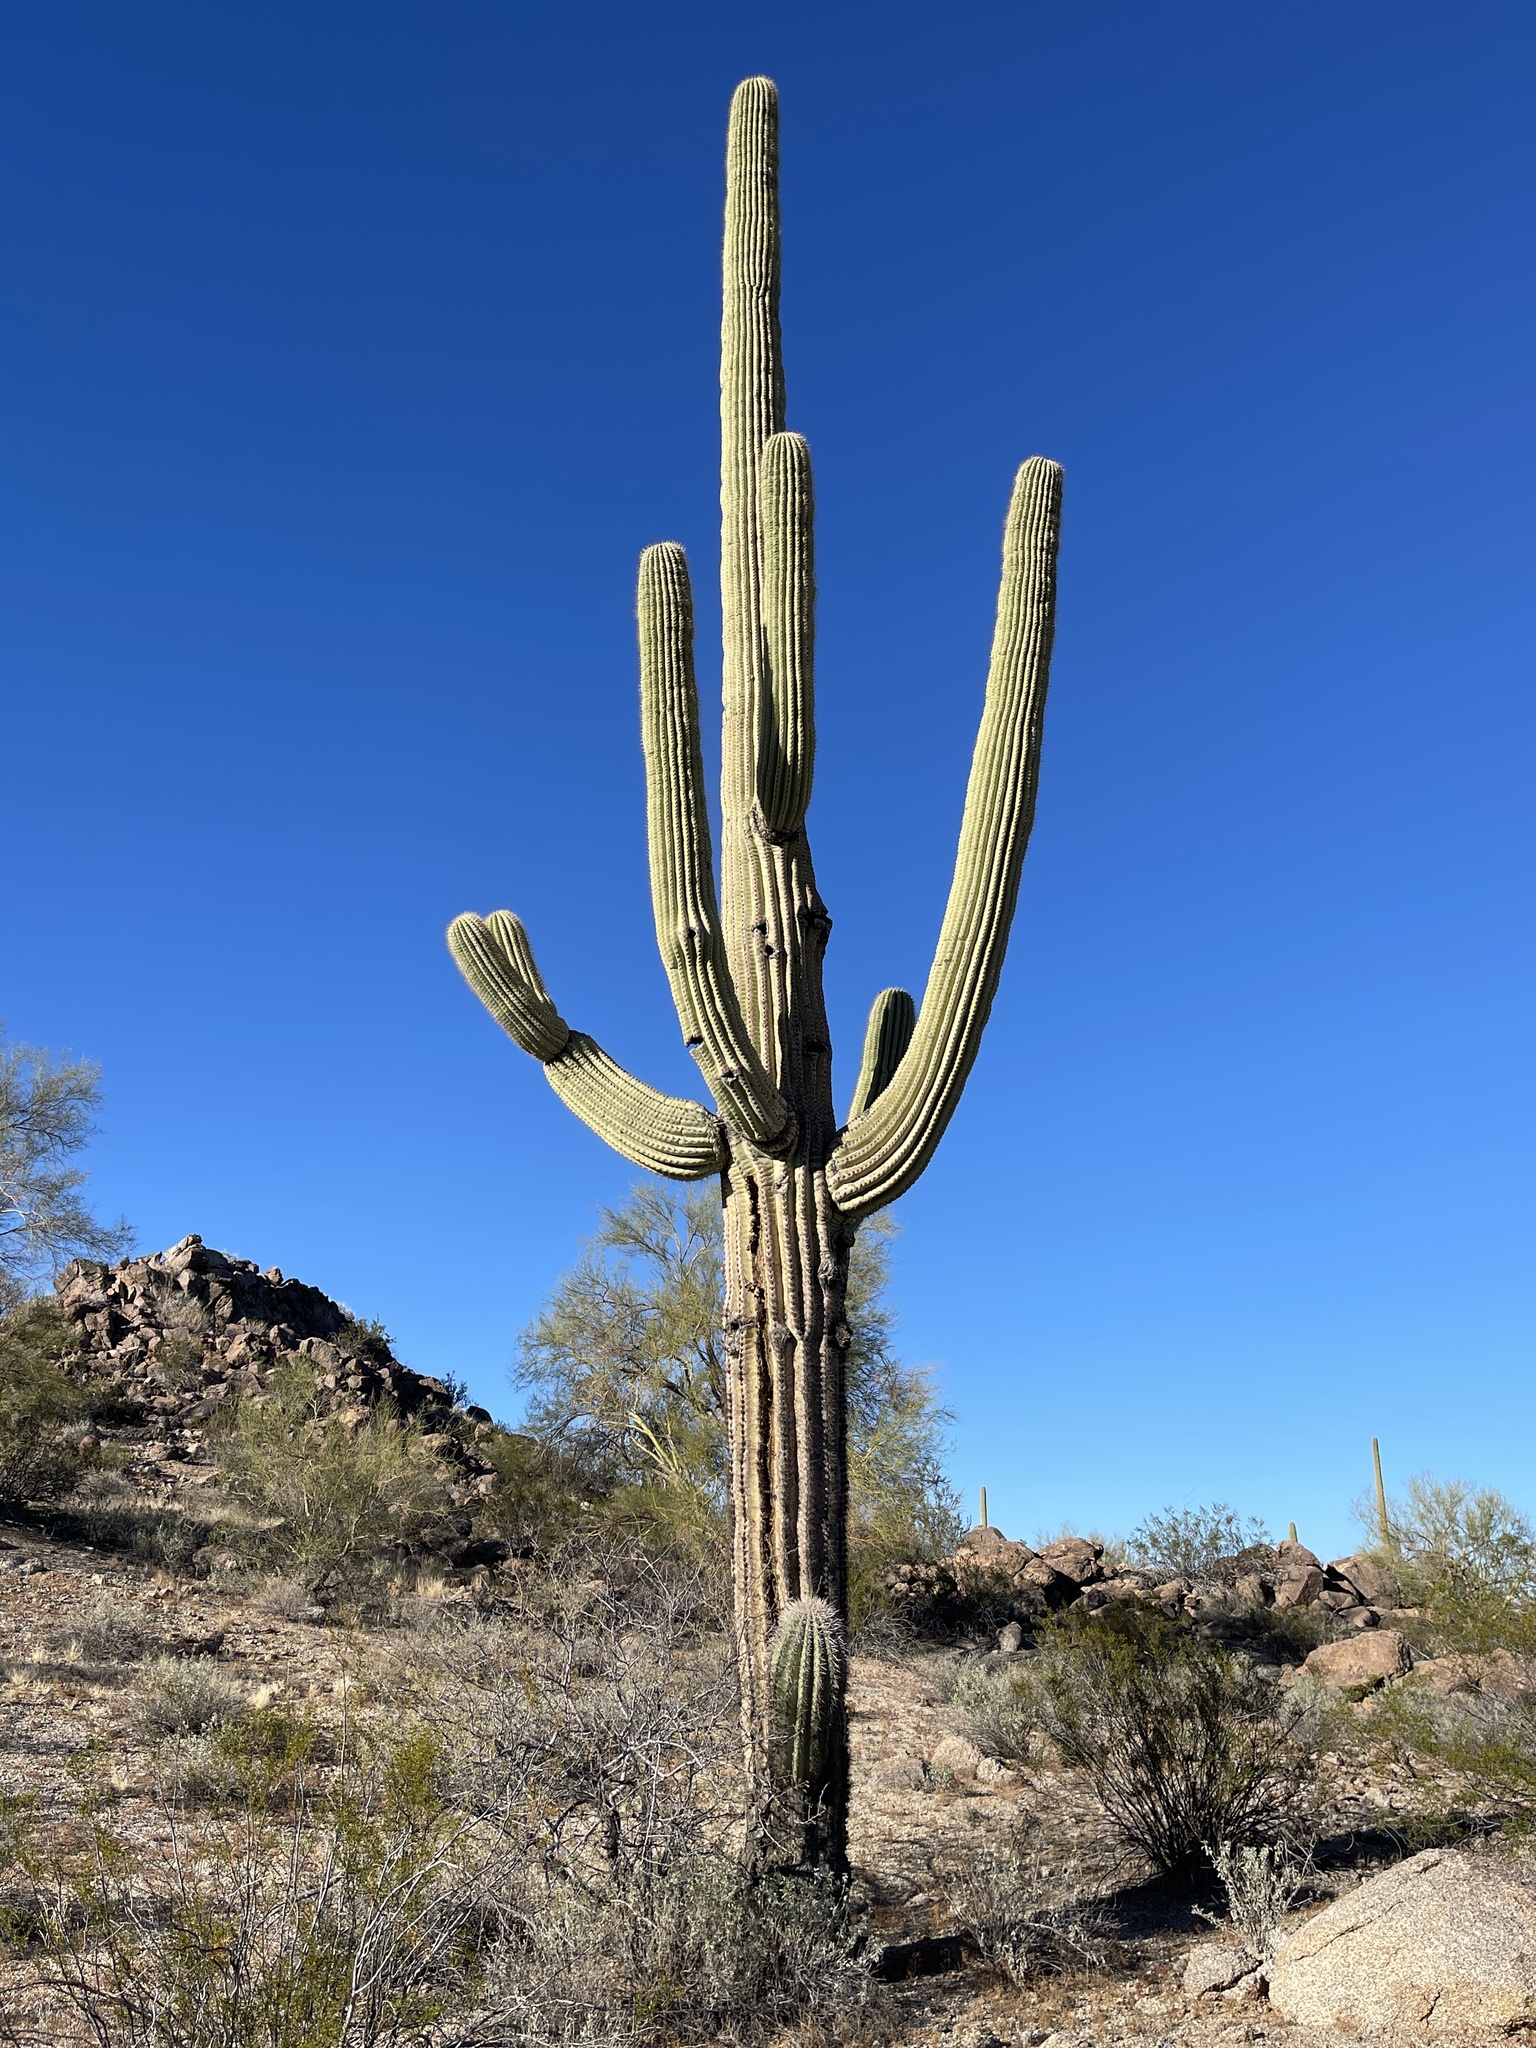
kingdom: Plantae
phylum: Tracheophyta
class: Magnoliopsida
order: Caryophyllales
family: Cactaceae
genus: Carnegiea
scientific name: Carnegiea gigantea
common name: Saguaro
